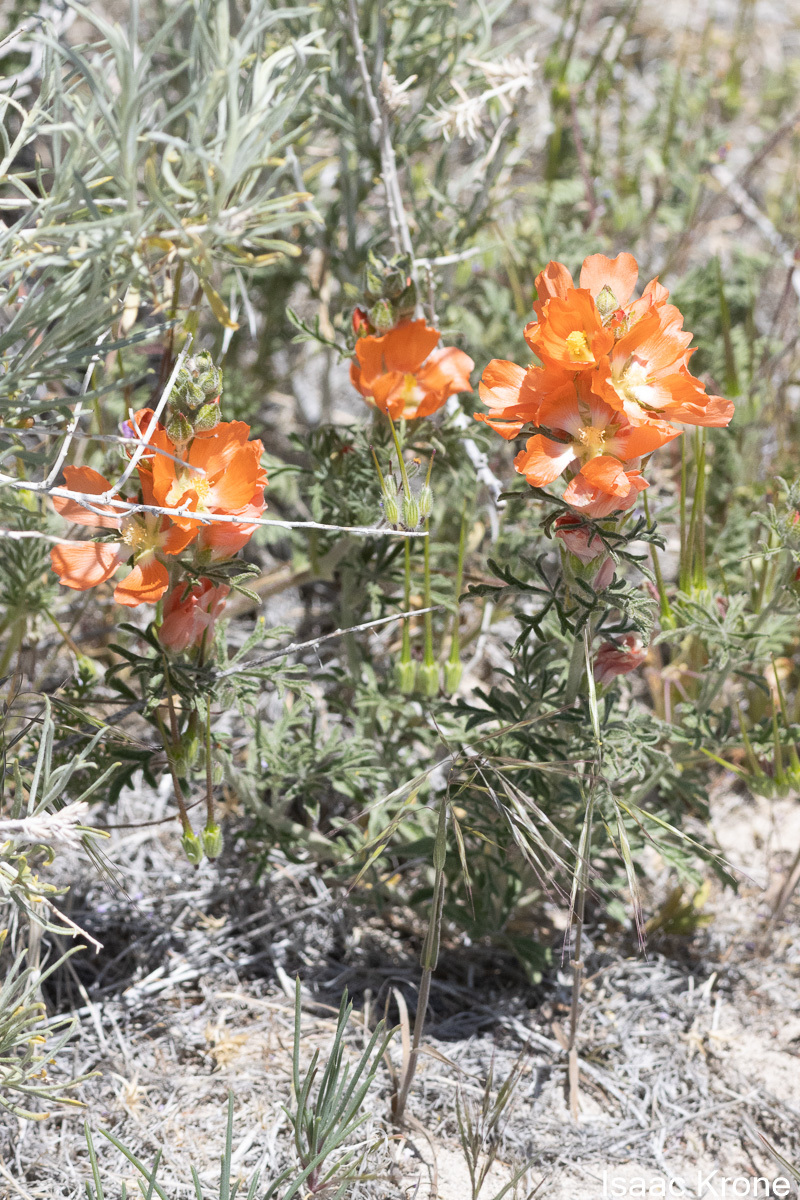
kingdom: Plantae
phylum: Tracheophyta
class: Magnoliopsida
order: Malvales
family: Malvaceae
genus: Sphaeralcea
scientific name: Sphaeralcea coccinea
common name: Moss-rose
